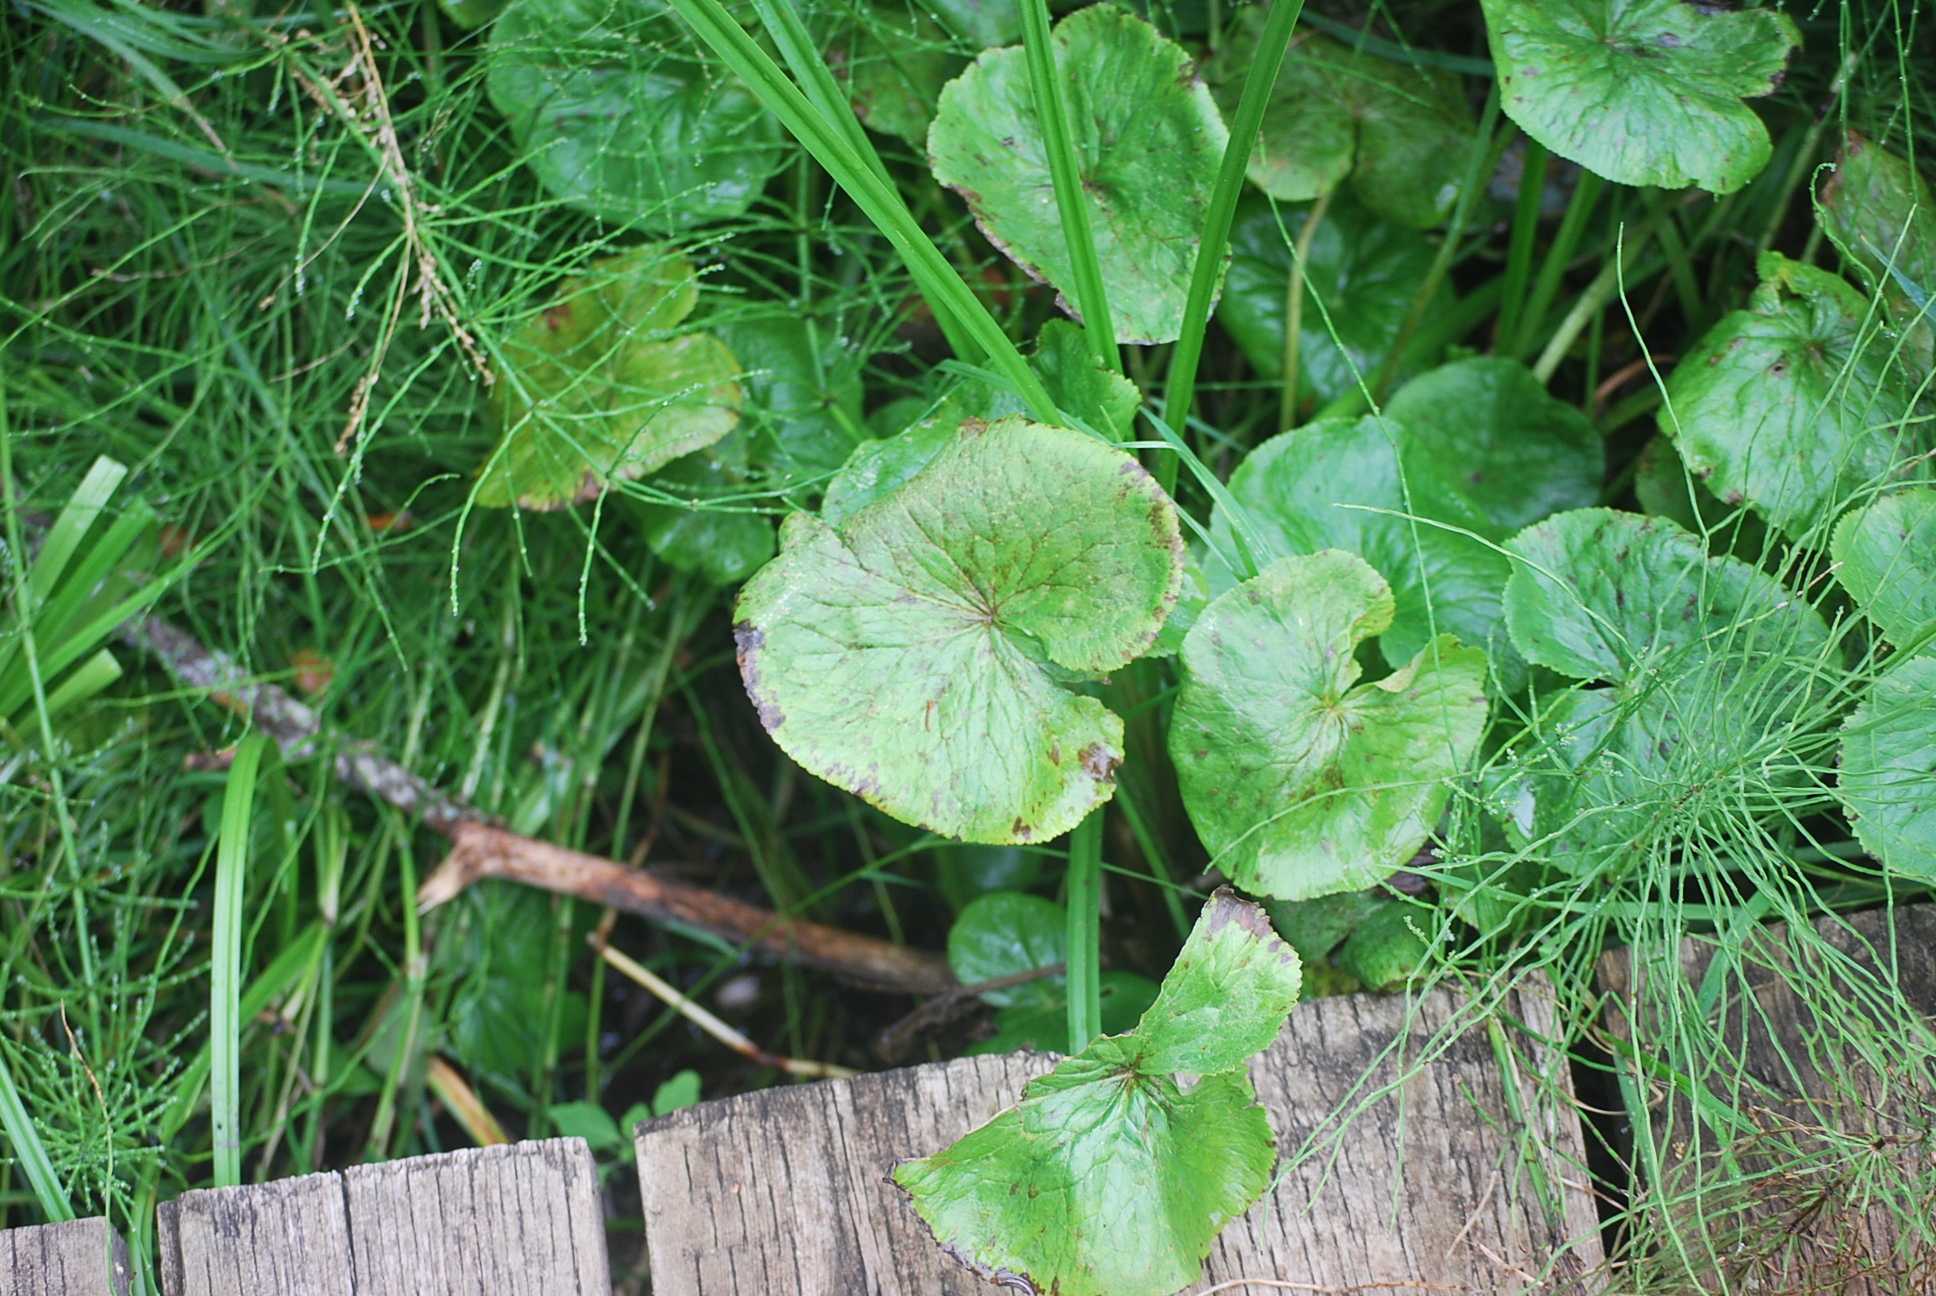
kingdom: Plantae
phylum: Tracheophyta
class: Magnoliopsida
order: Ranunculales
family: Ranunculaceae
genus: Caltha
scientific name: Caltha palustris
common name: Marsh marigold
